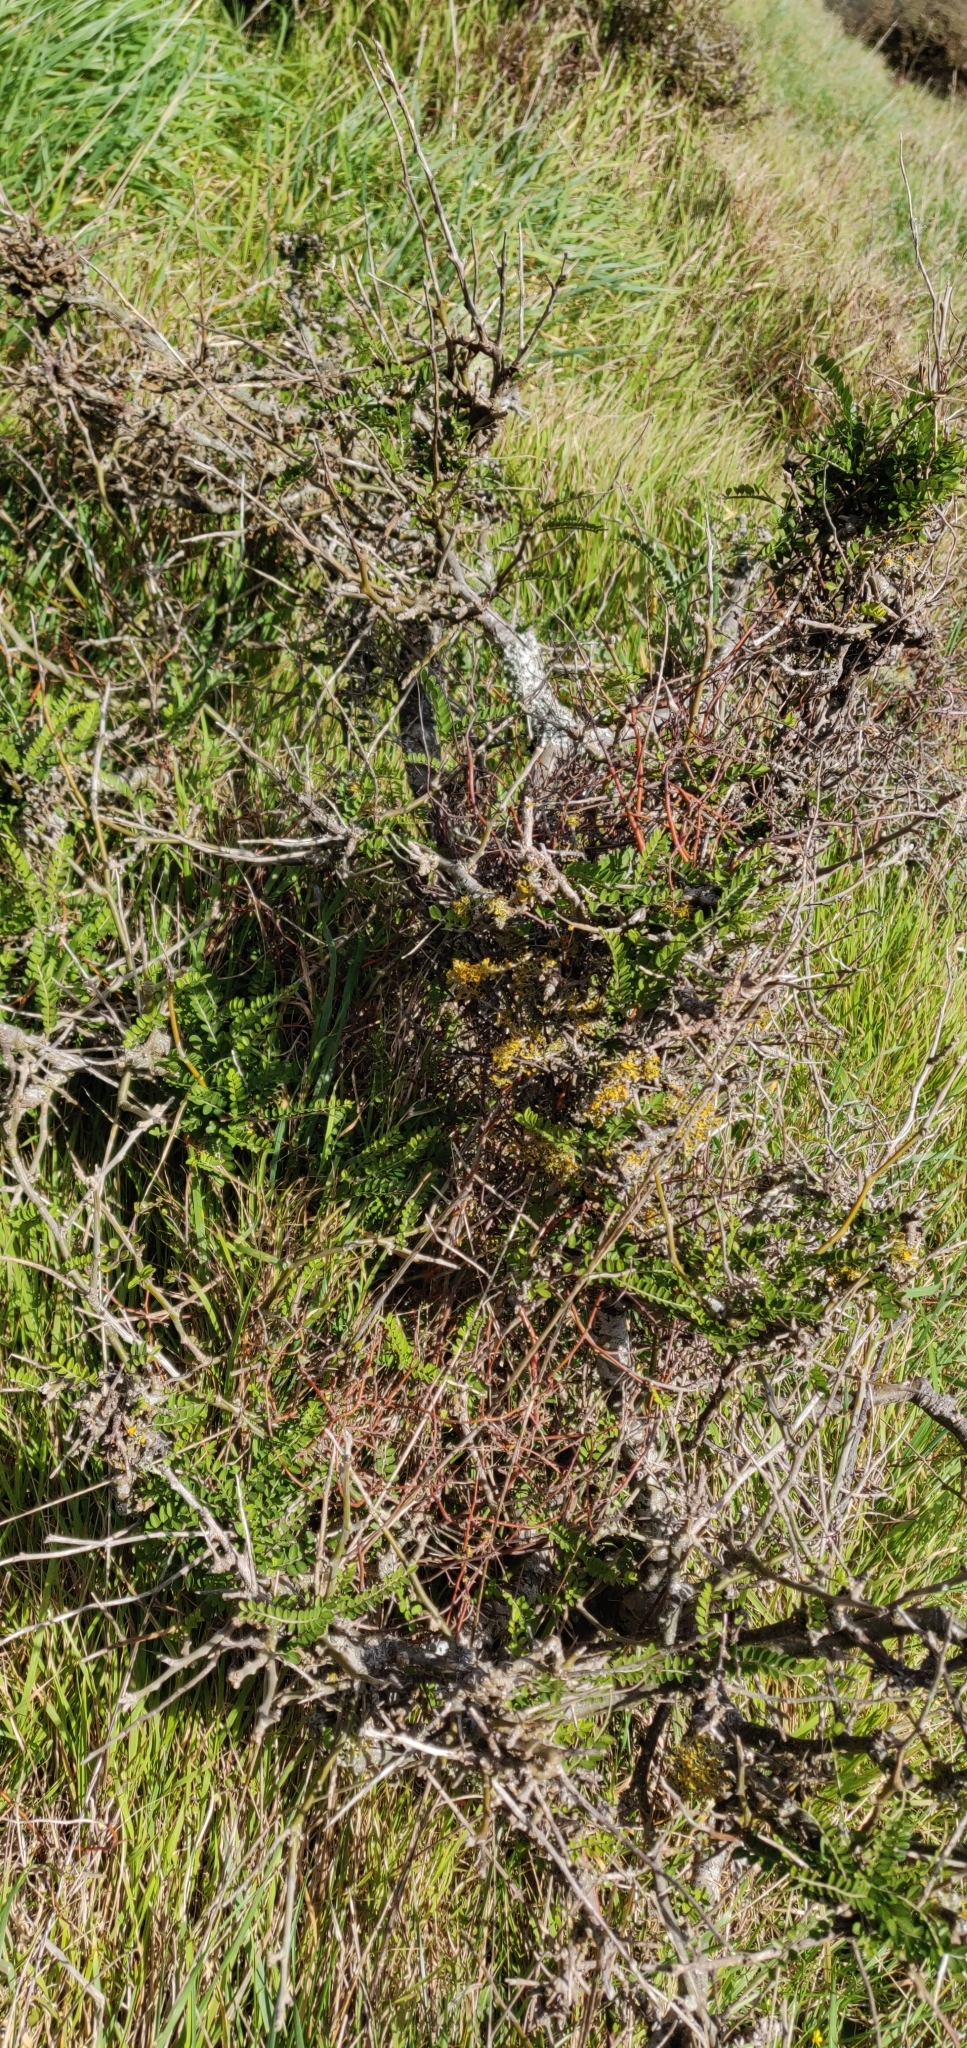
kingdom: Plantae
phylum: Tracheophyta
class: Magnoliopsida
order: Fabales
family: Fabaceae
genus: Sophora
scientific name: Sophora molloyi
